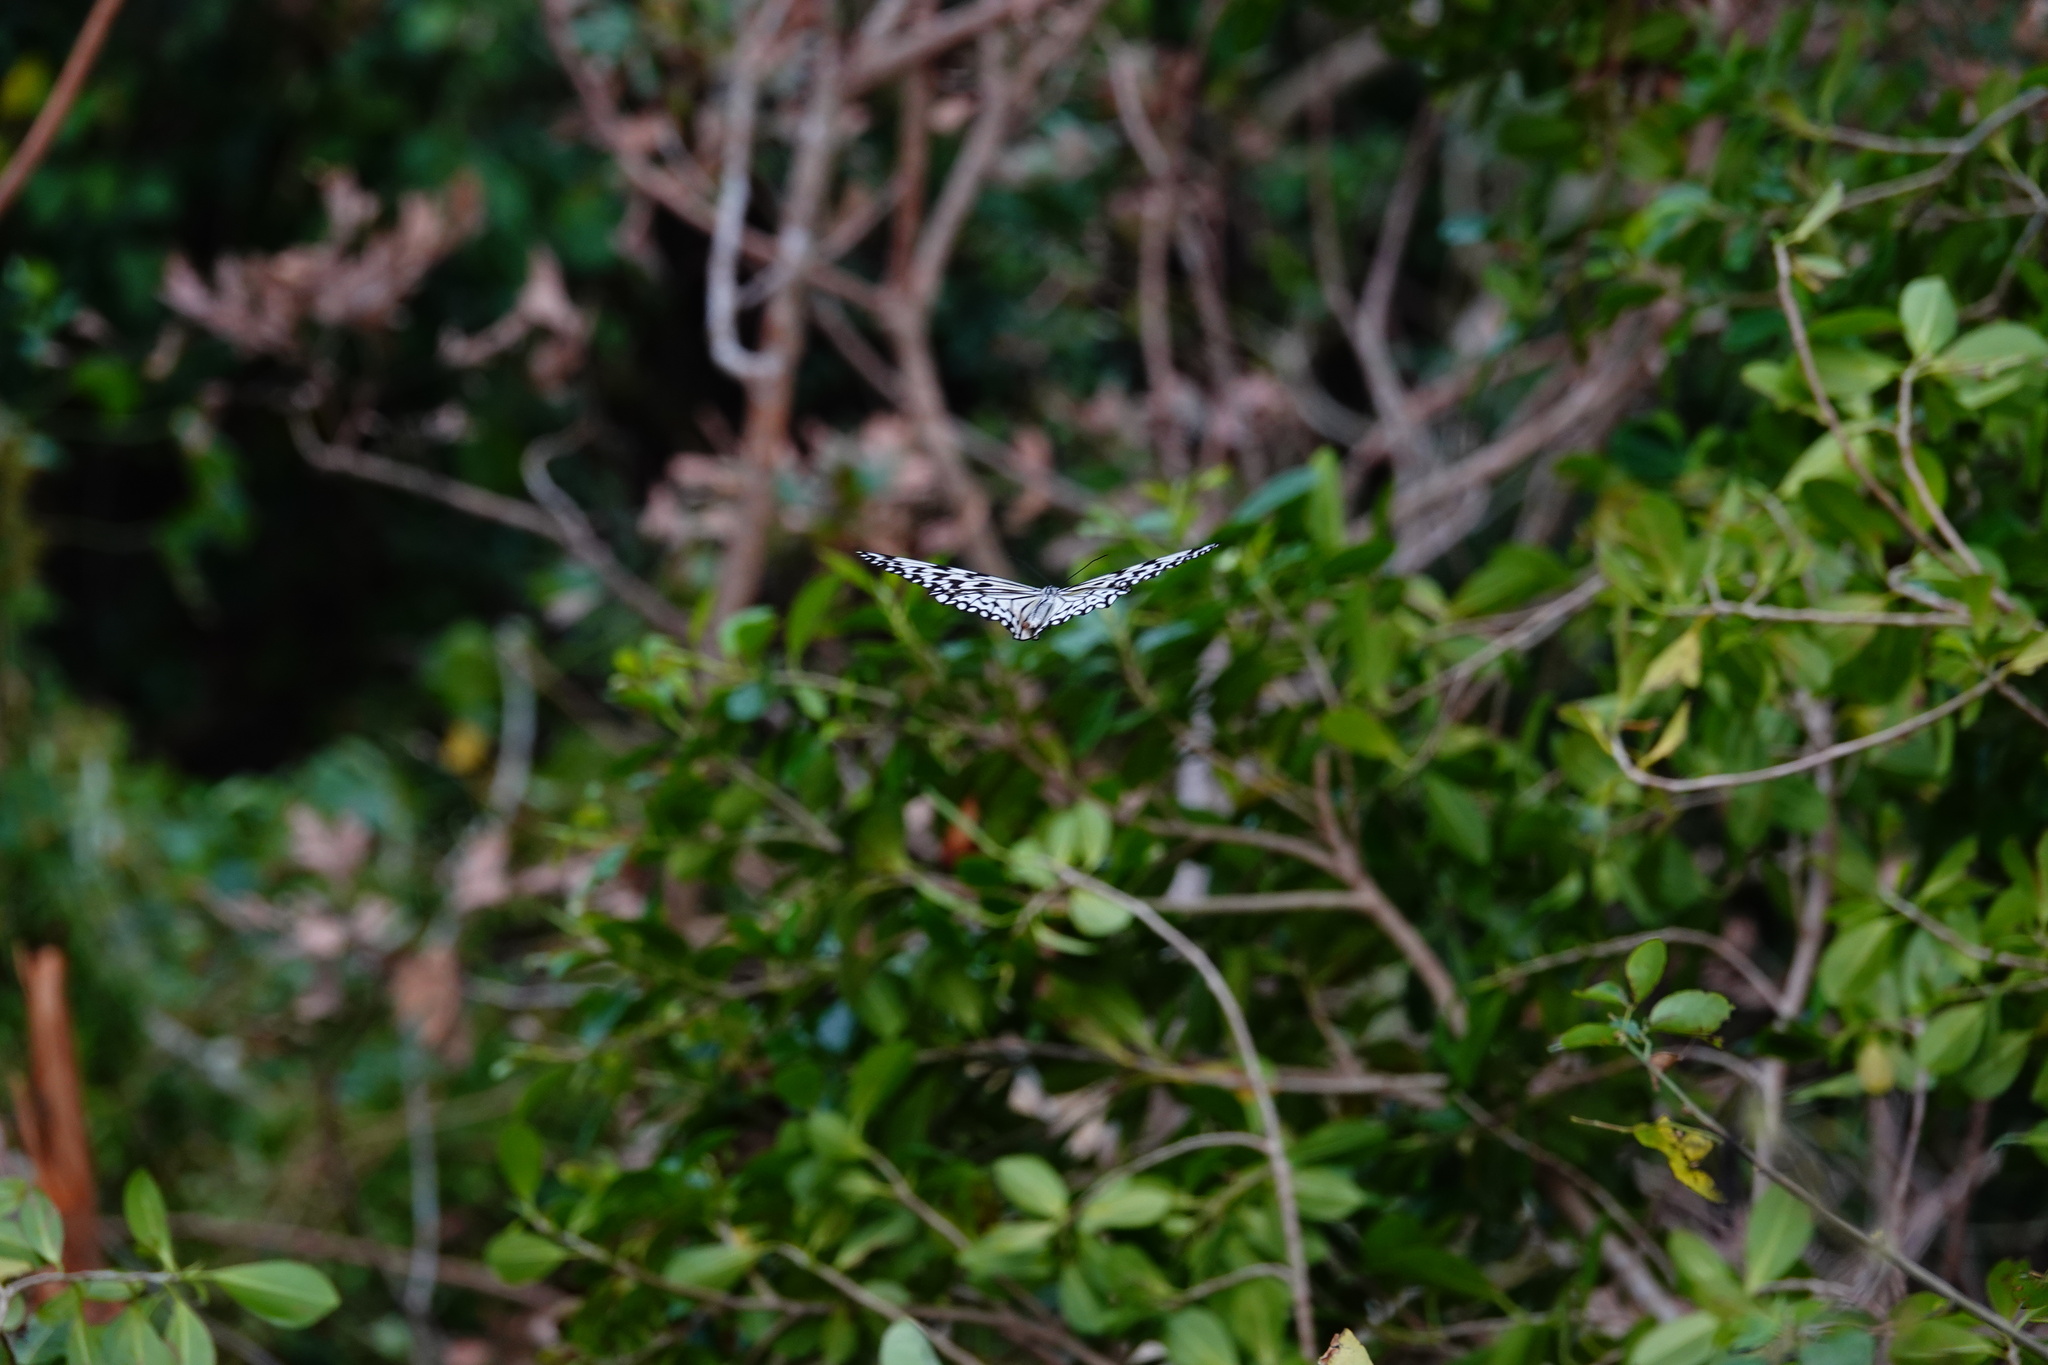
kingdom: Animalia
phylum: Arthropoda
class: Insecta
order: Lepidoptera
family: Nymphalidae
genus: Idea
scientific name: Idea leuconoe
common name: Rice paper butterfly
